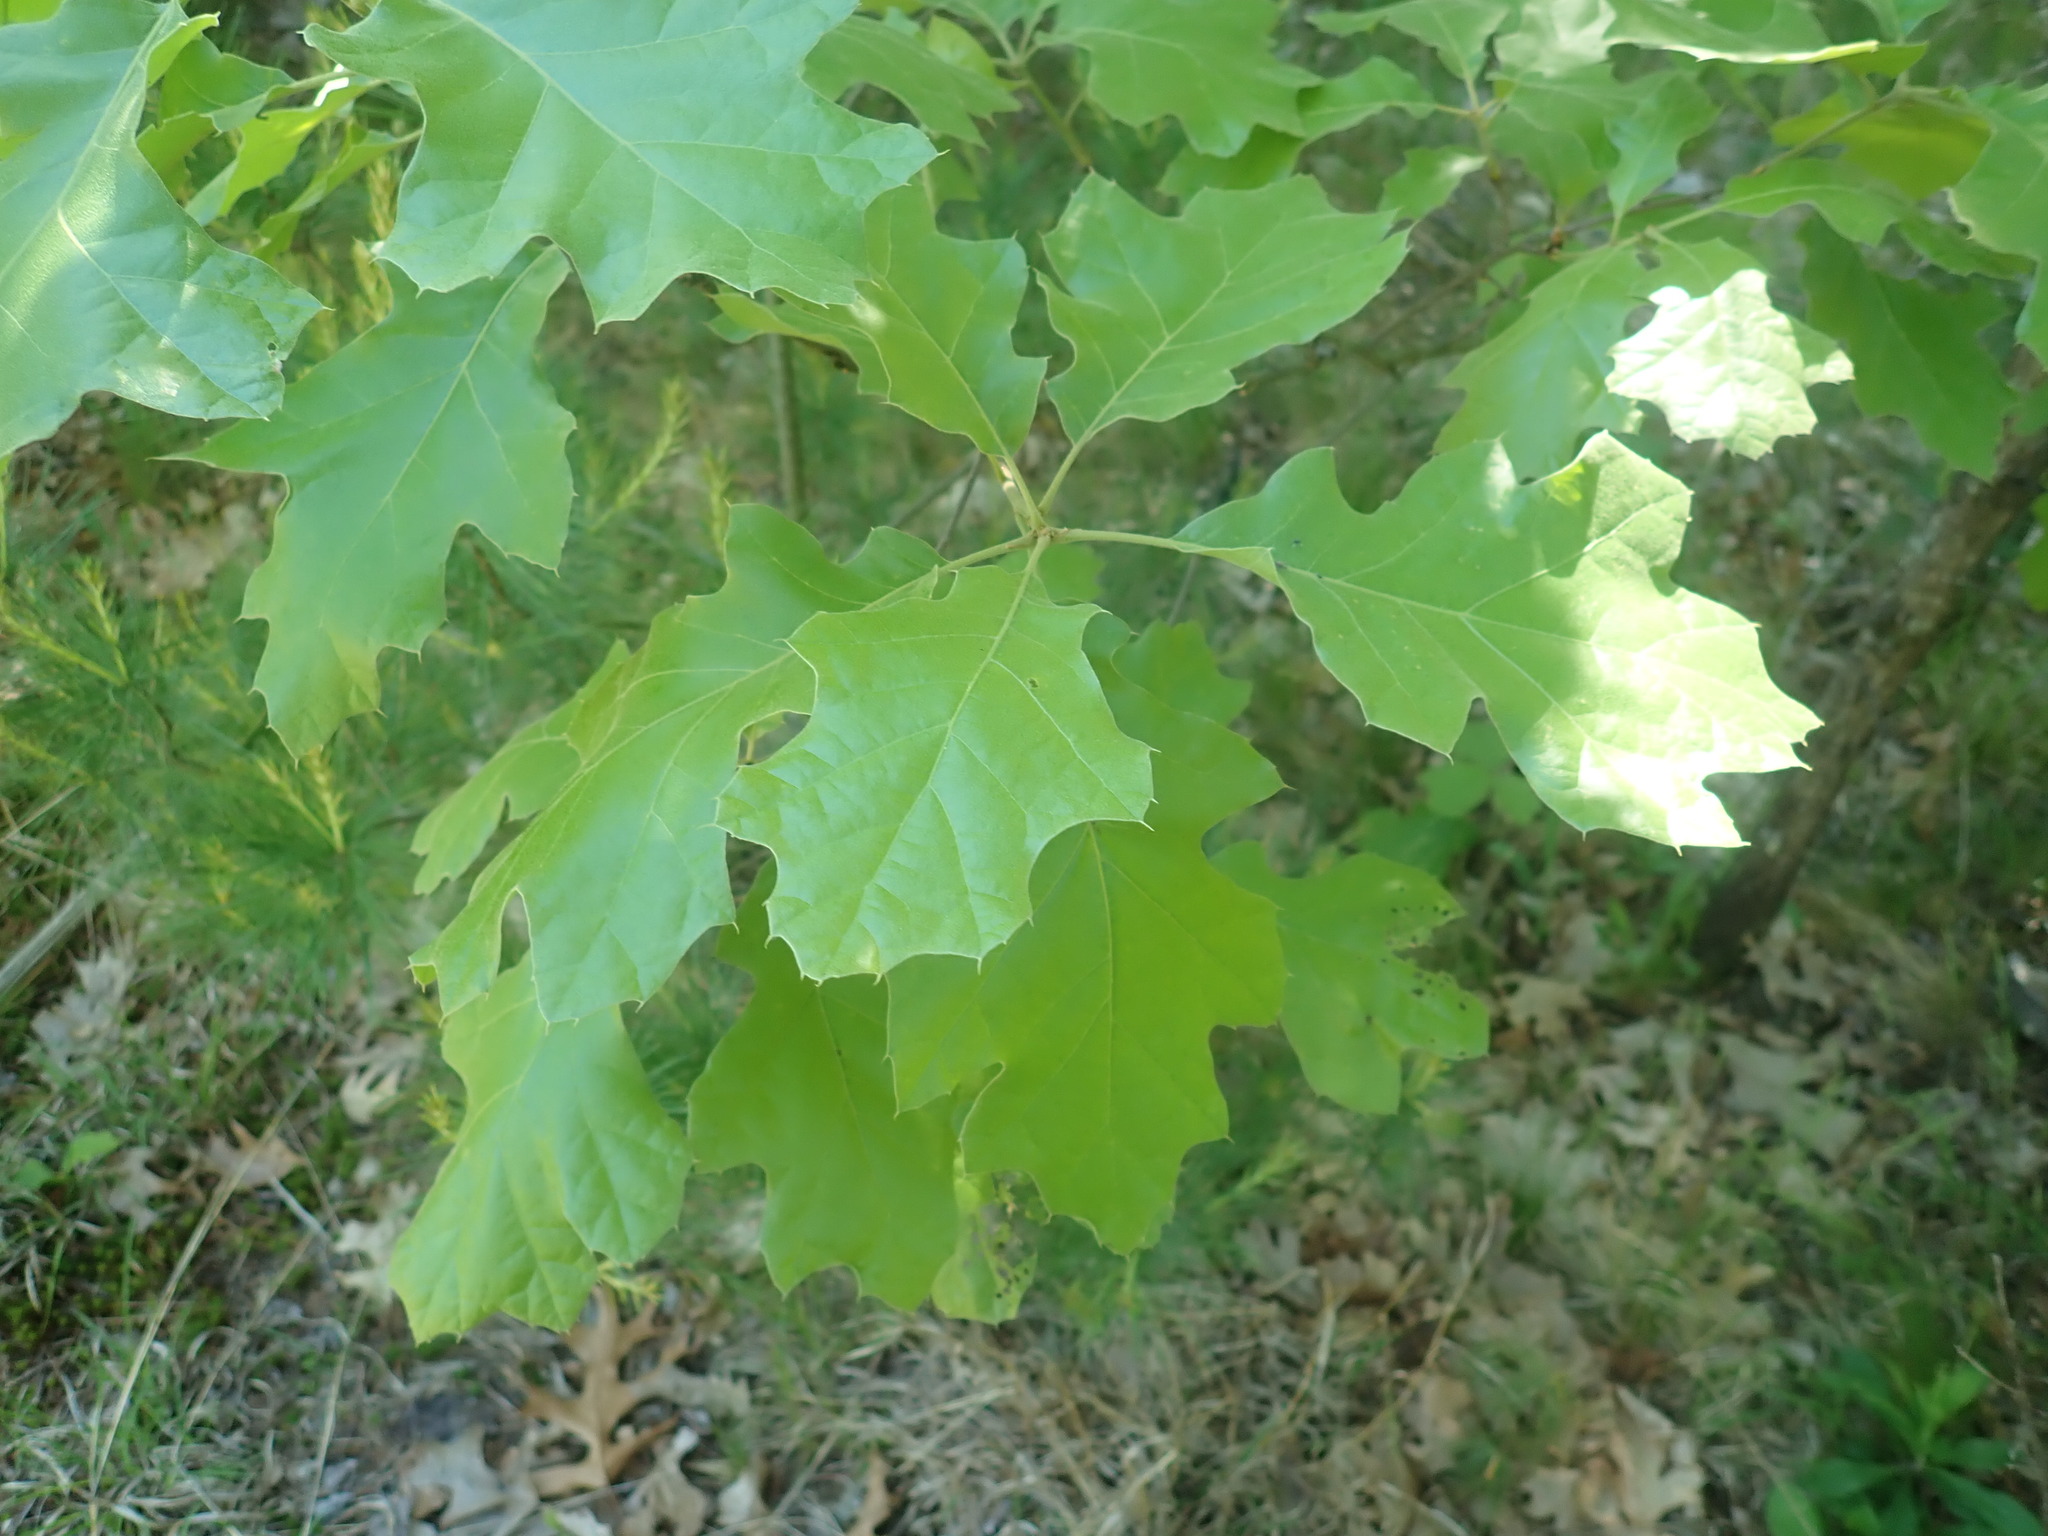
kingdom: Plantae
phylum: Tracheophyta
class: Magnoliopsida
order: Fagales
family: Fagaceae
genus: Quercus
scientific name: Quercus velutina
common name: Black oak
